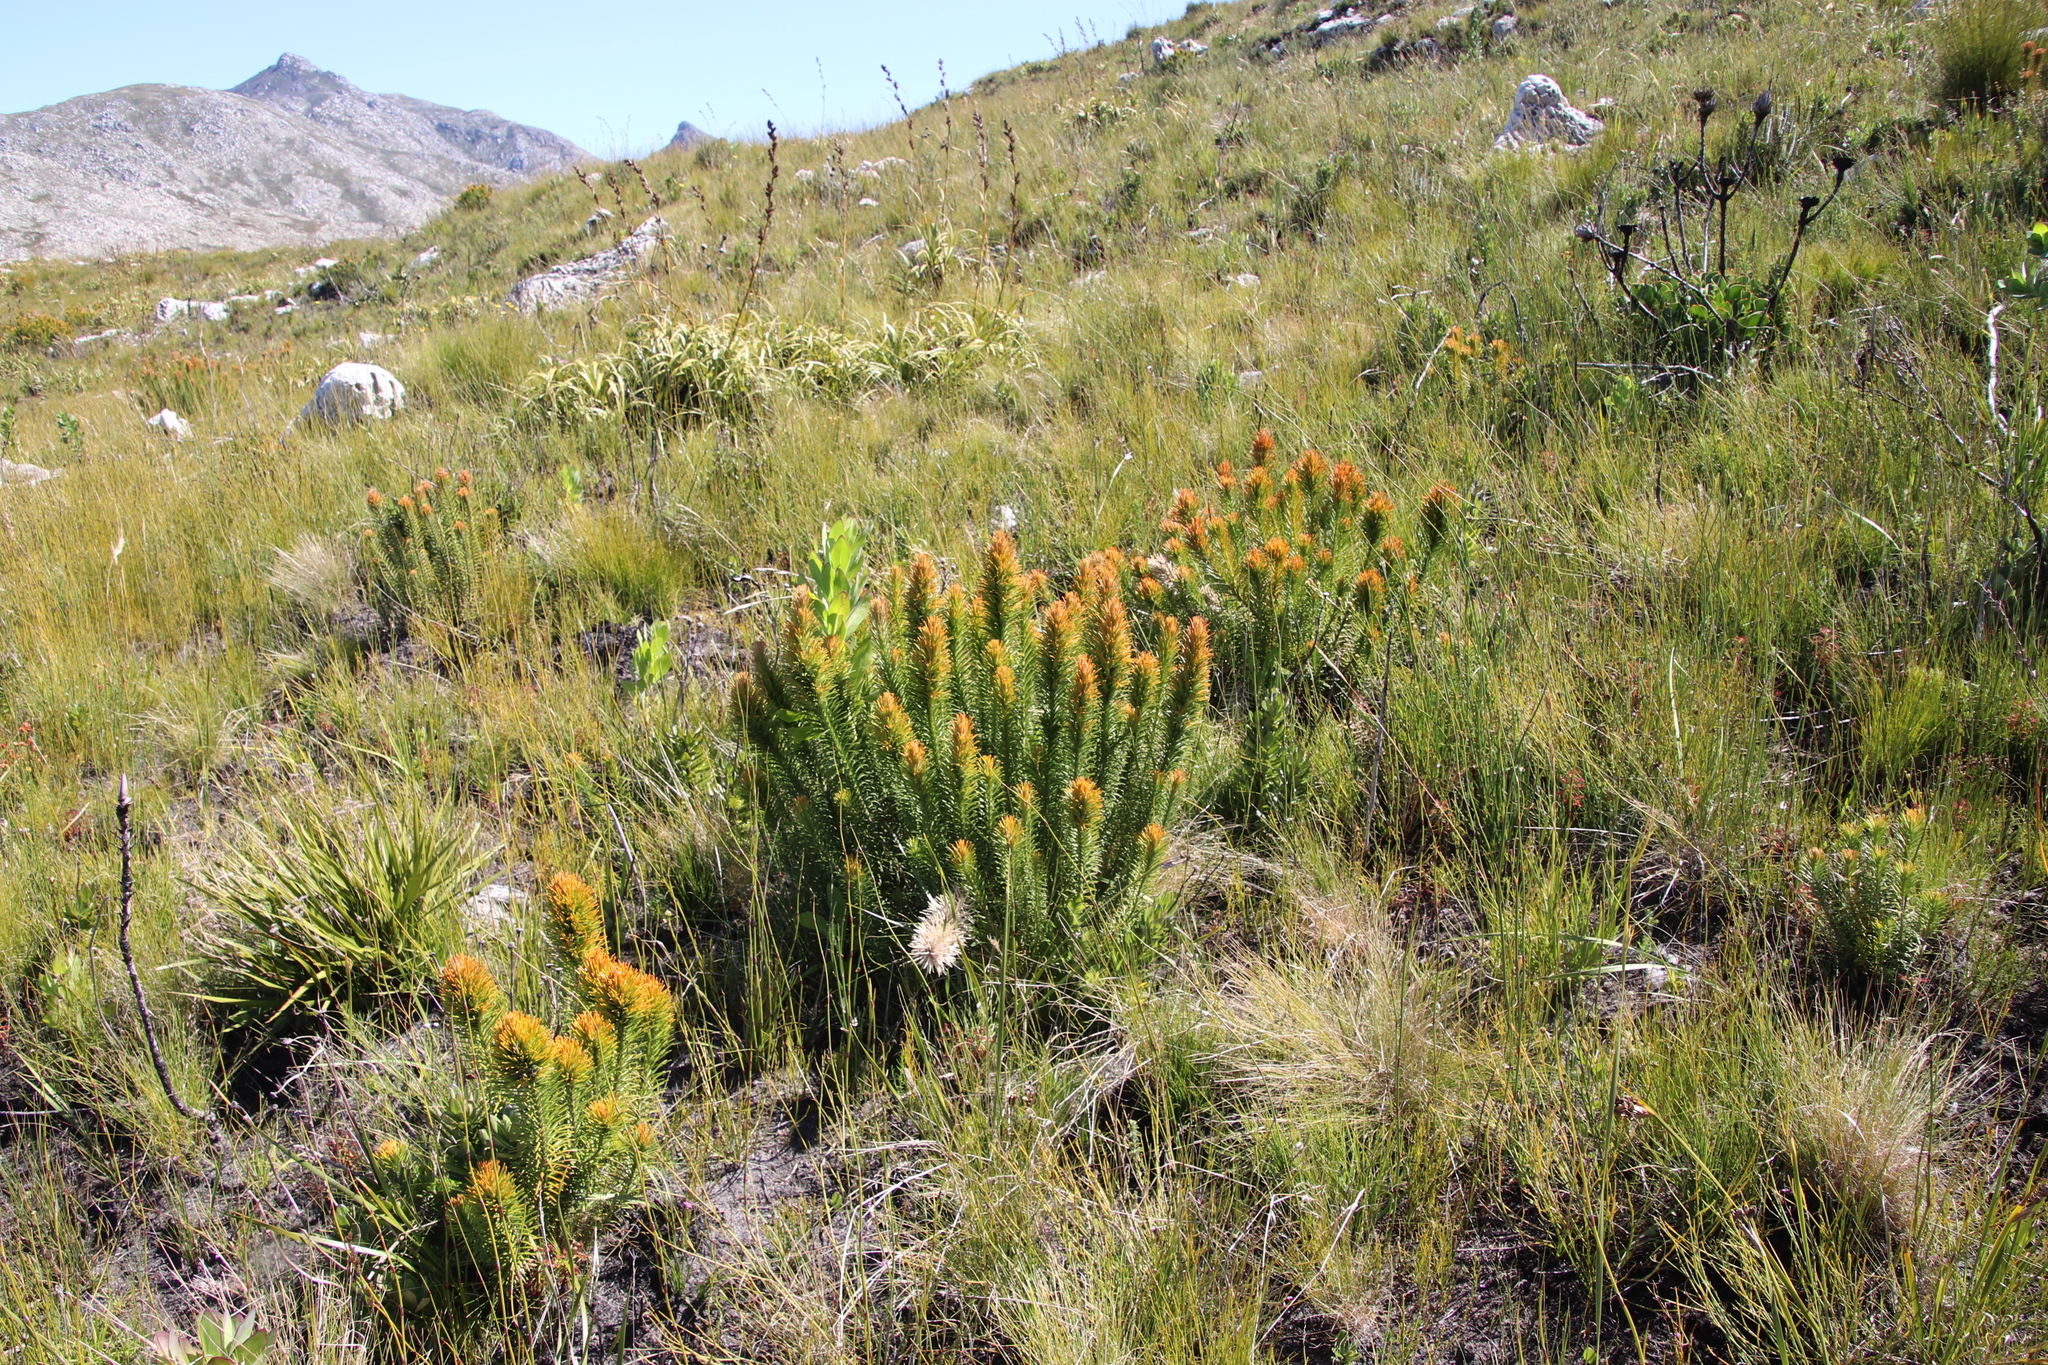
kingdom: Plantae
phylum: Tracheophyta
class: Magnoliopsida
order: Lamiales
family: Stilbaceae
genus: Retzia
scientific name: Retzia capensis
